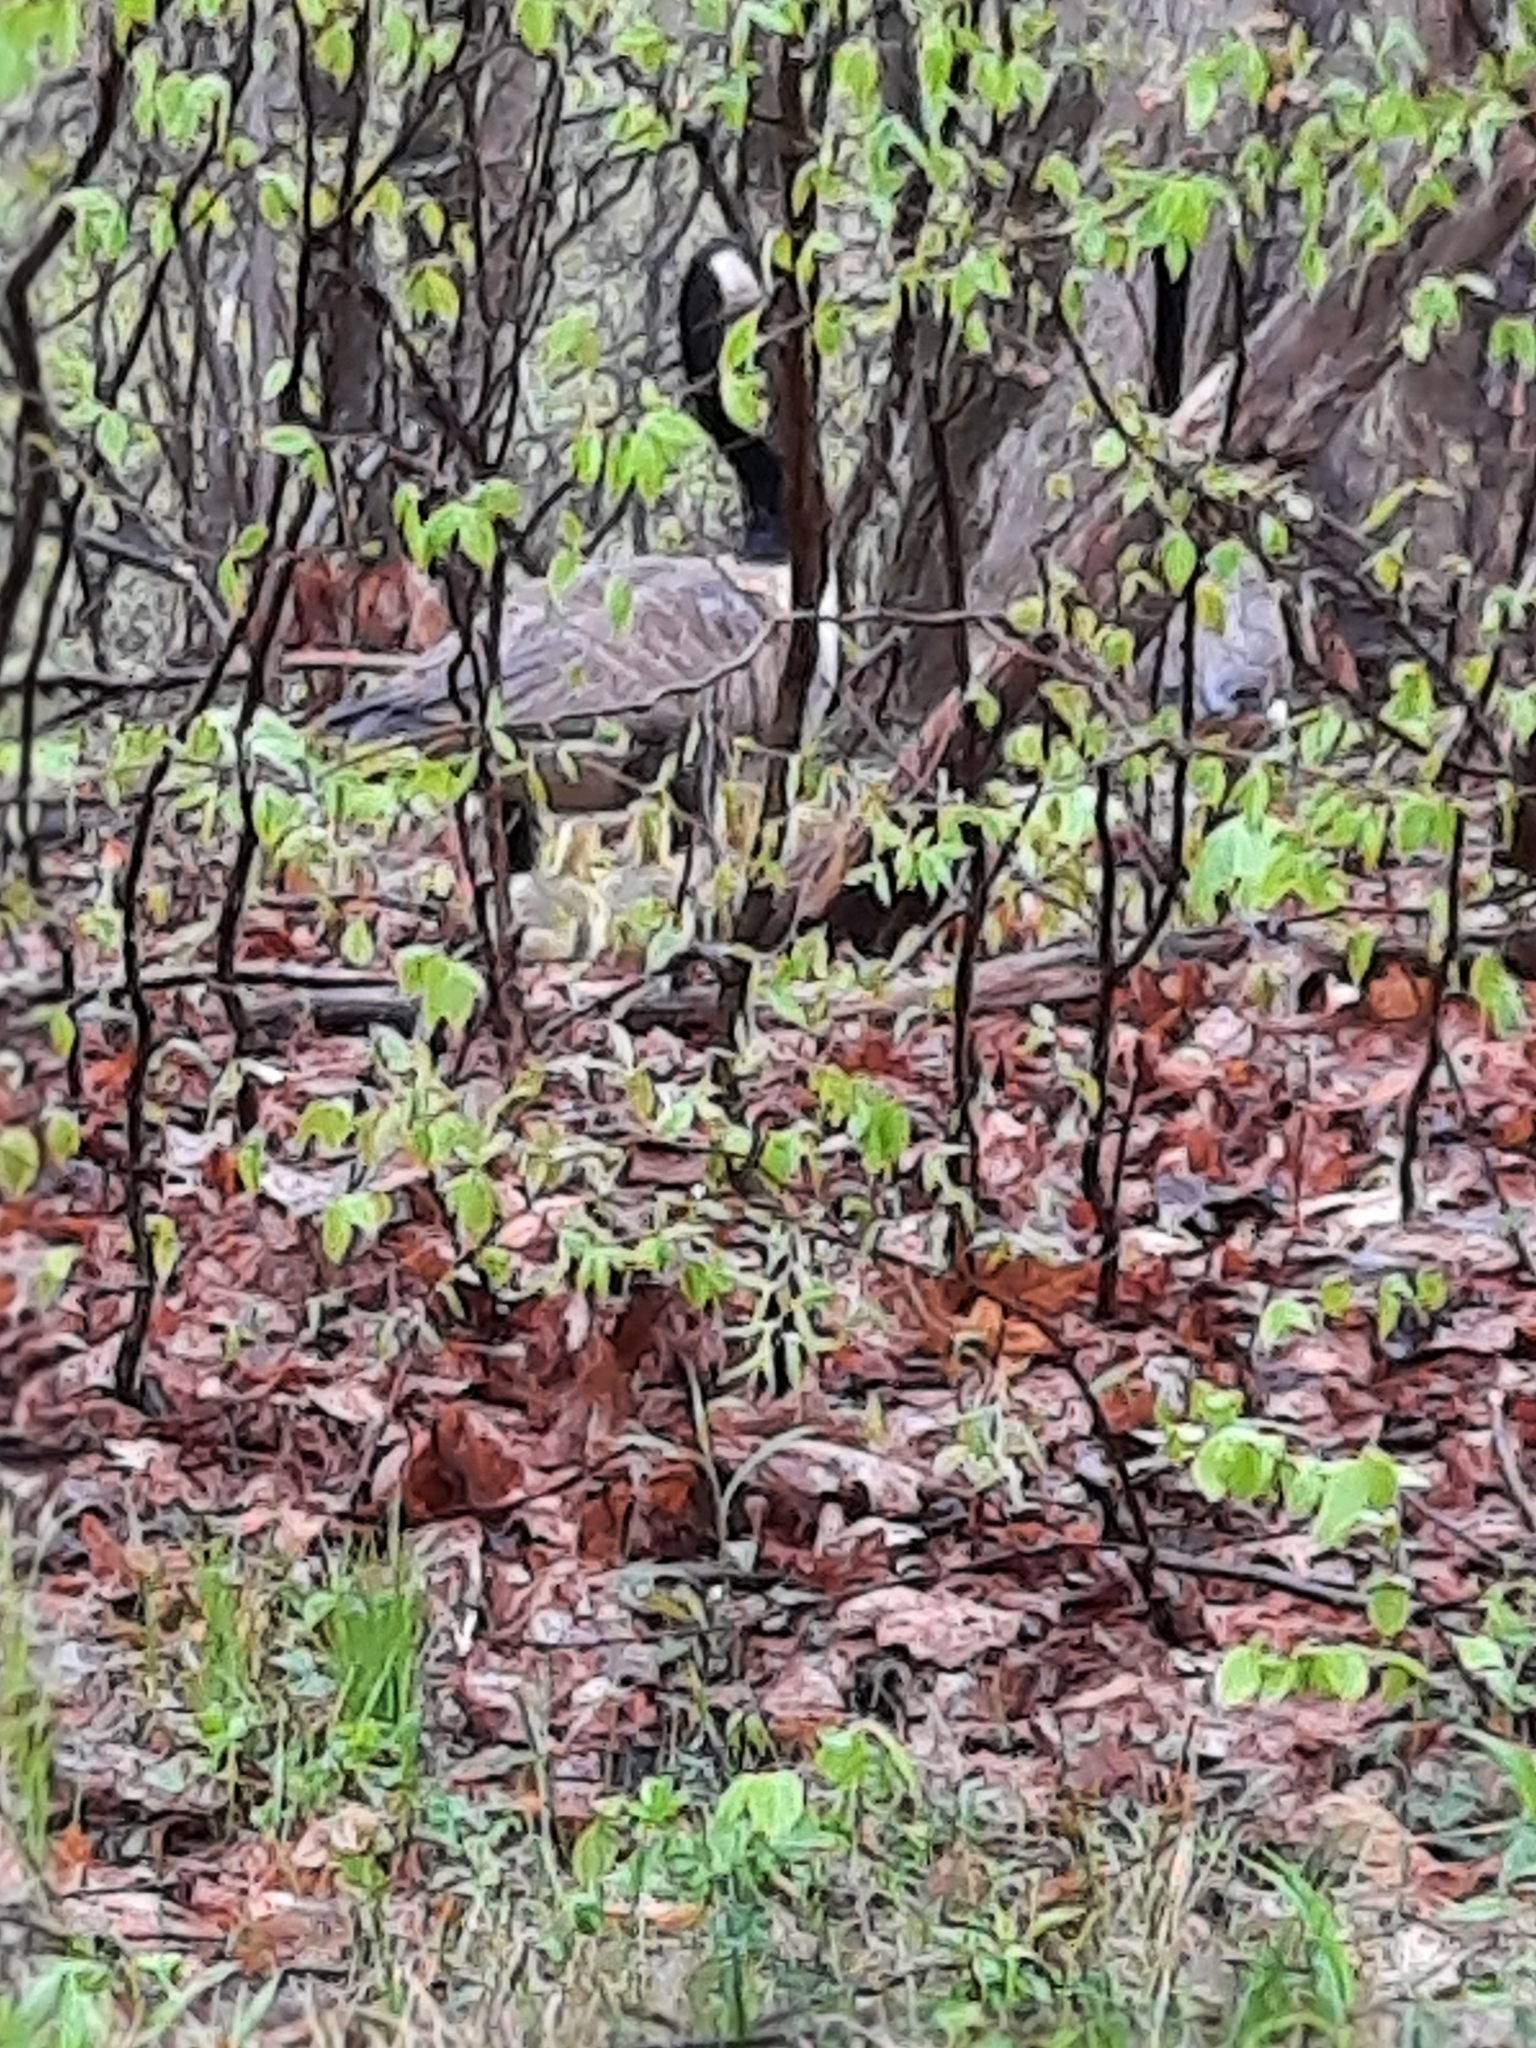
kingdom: Animalia
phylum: Chordata
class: Aves
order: Anseriformes
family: Anatidae
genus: Branta
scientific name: Branta canadensis
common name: Canada goose
